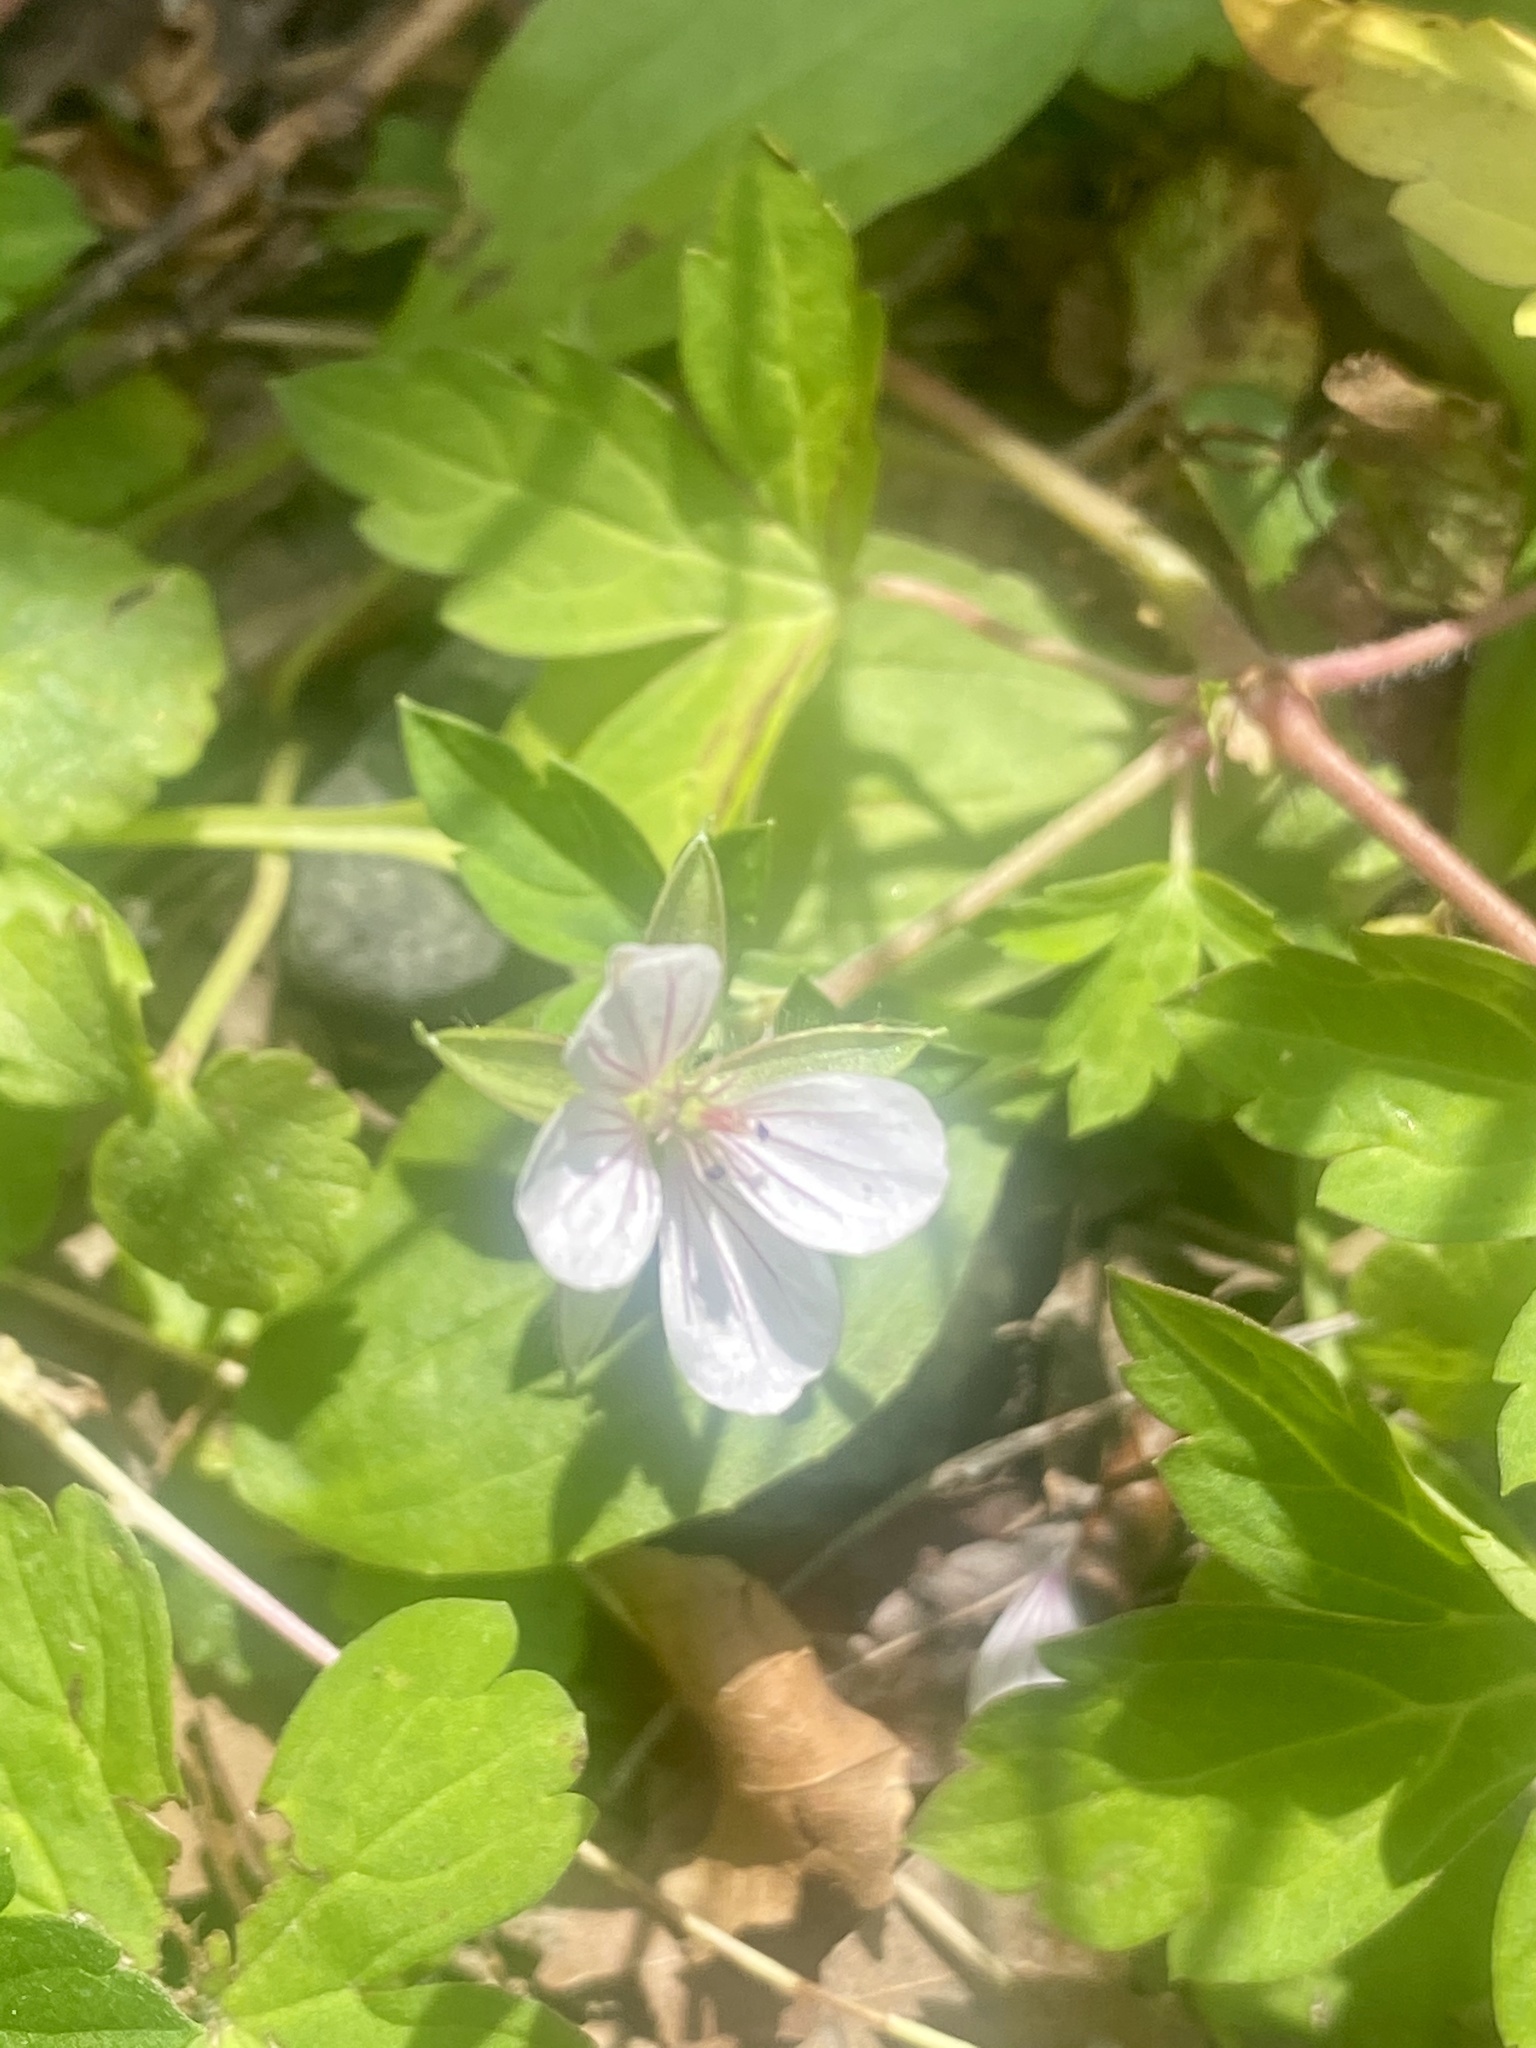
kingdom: Plantae
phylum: Tracheophyta
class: Magnoliopsida
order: Geraniales
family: Geraniaceae
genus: Geranium
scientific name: Geranium thunbergii
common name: Dewdrop crane's-bill
